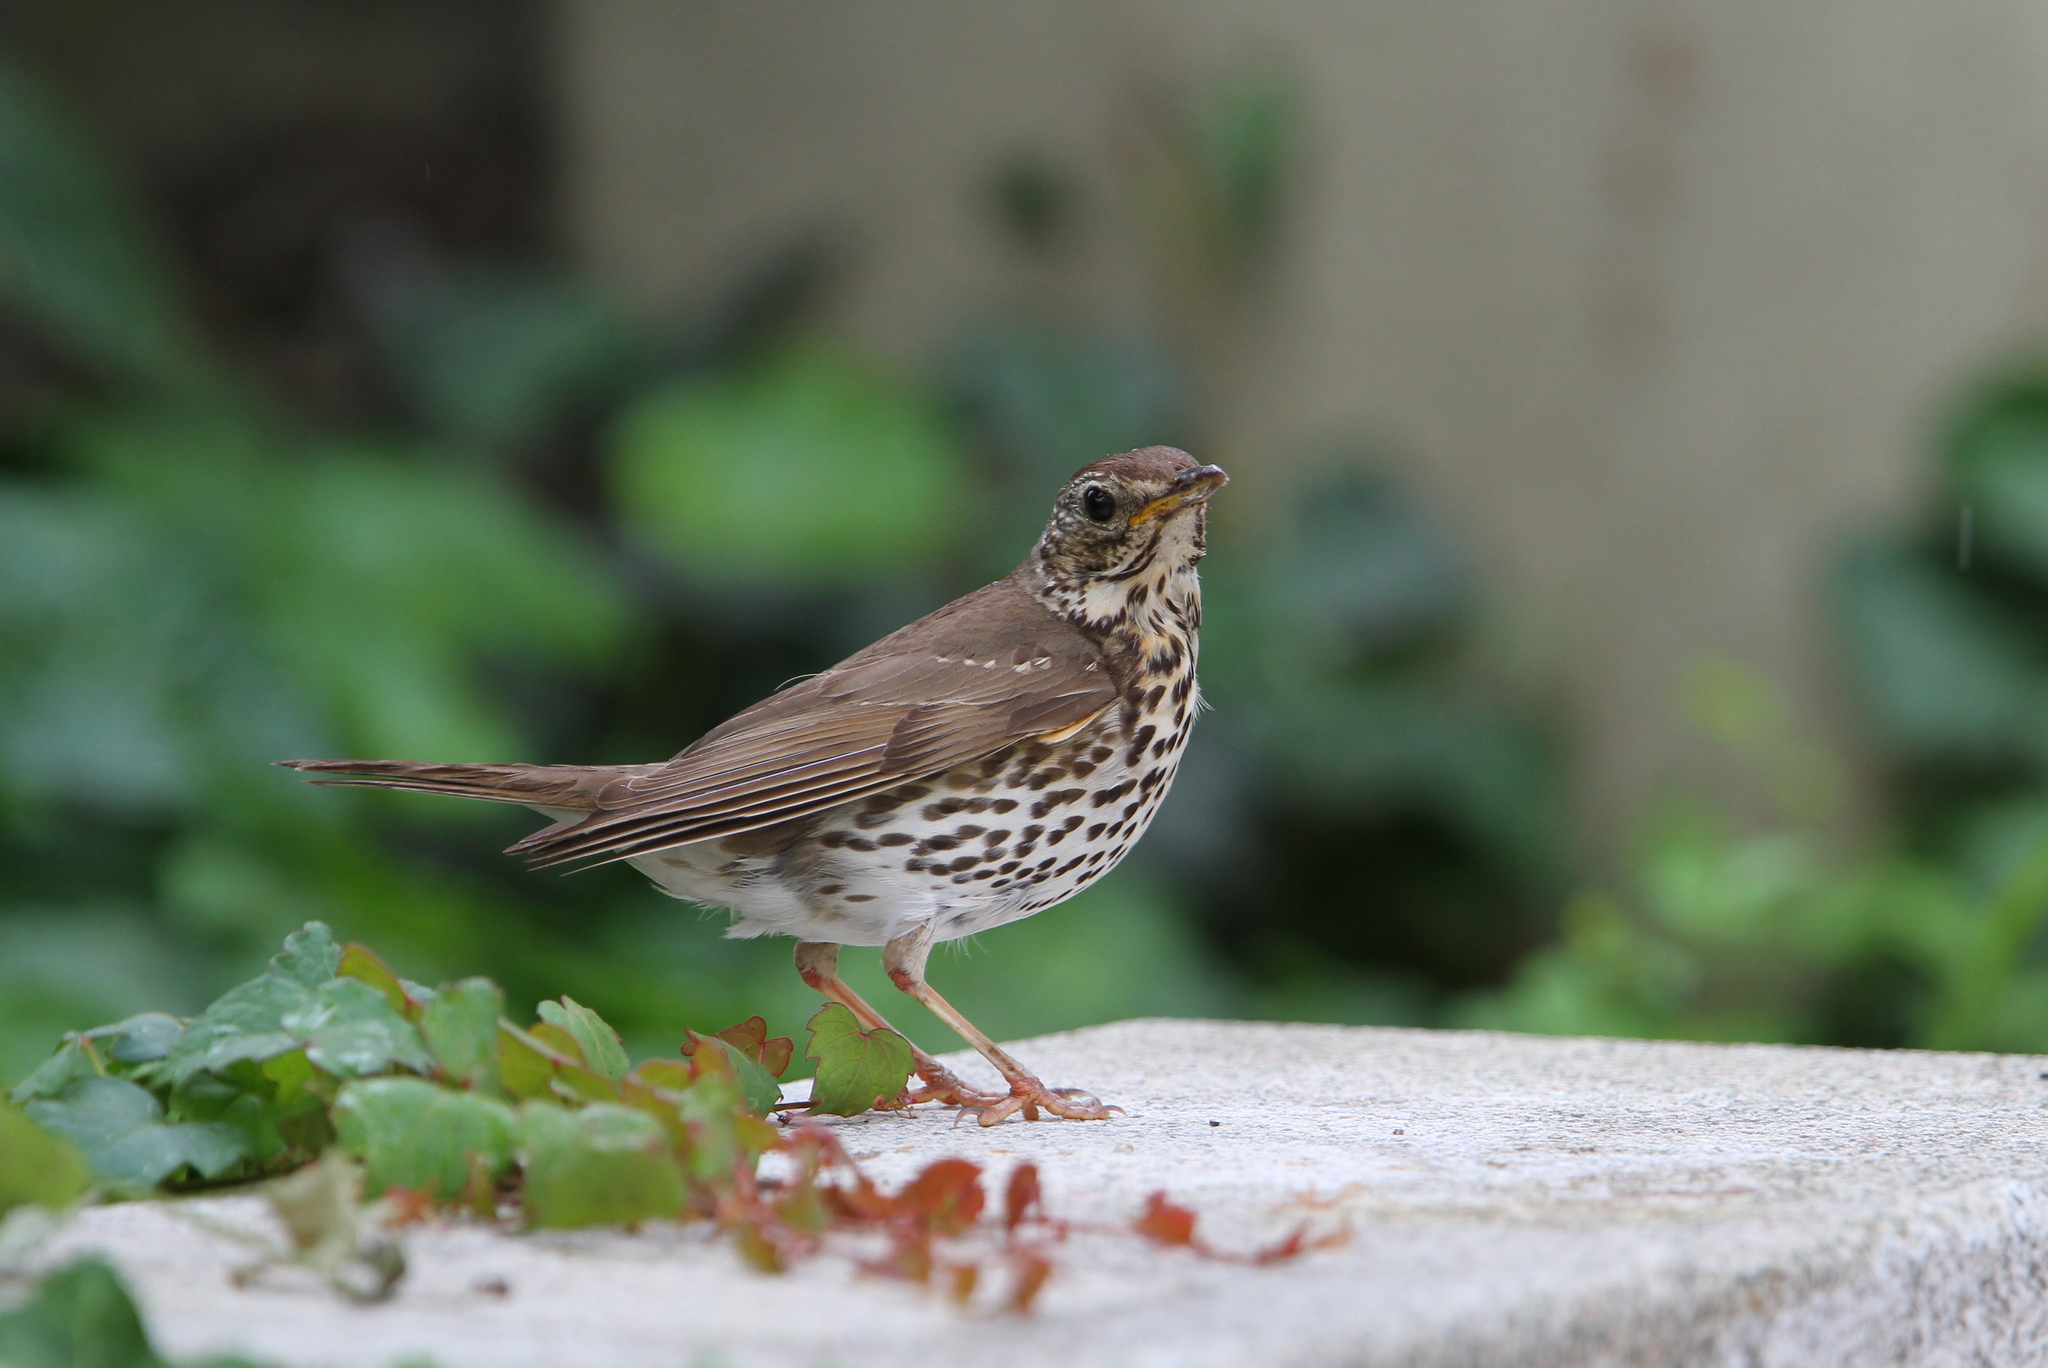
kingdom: Animalia
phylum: Chordata
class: Aves
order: Passeriformes
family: Turdidae
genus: Turdus
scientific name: Turdus philomelos
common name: Song thrush
